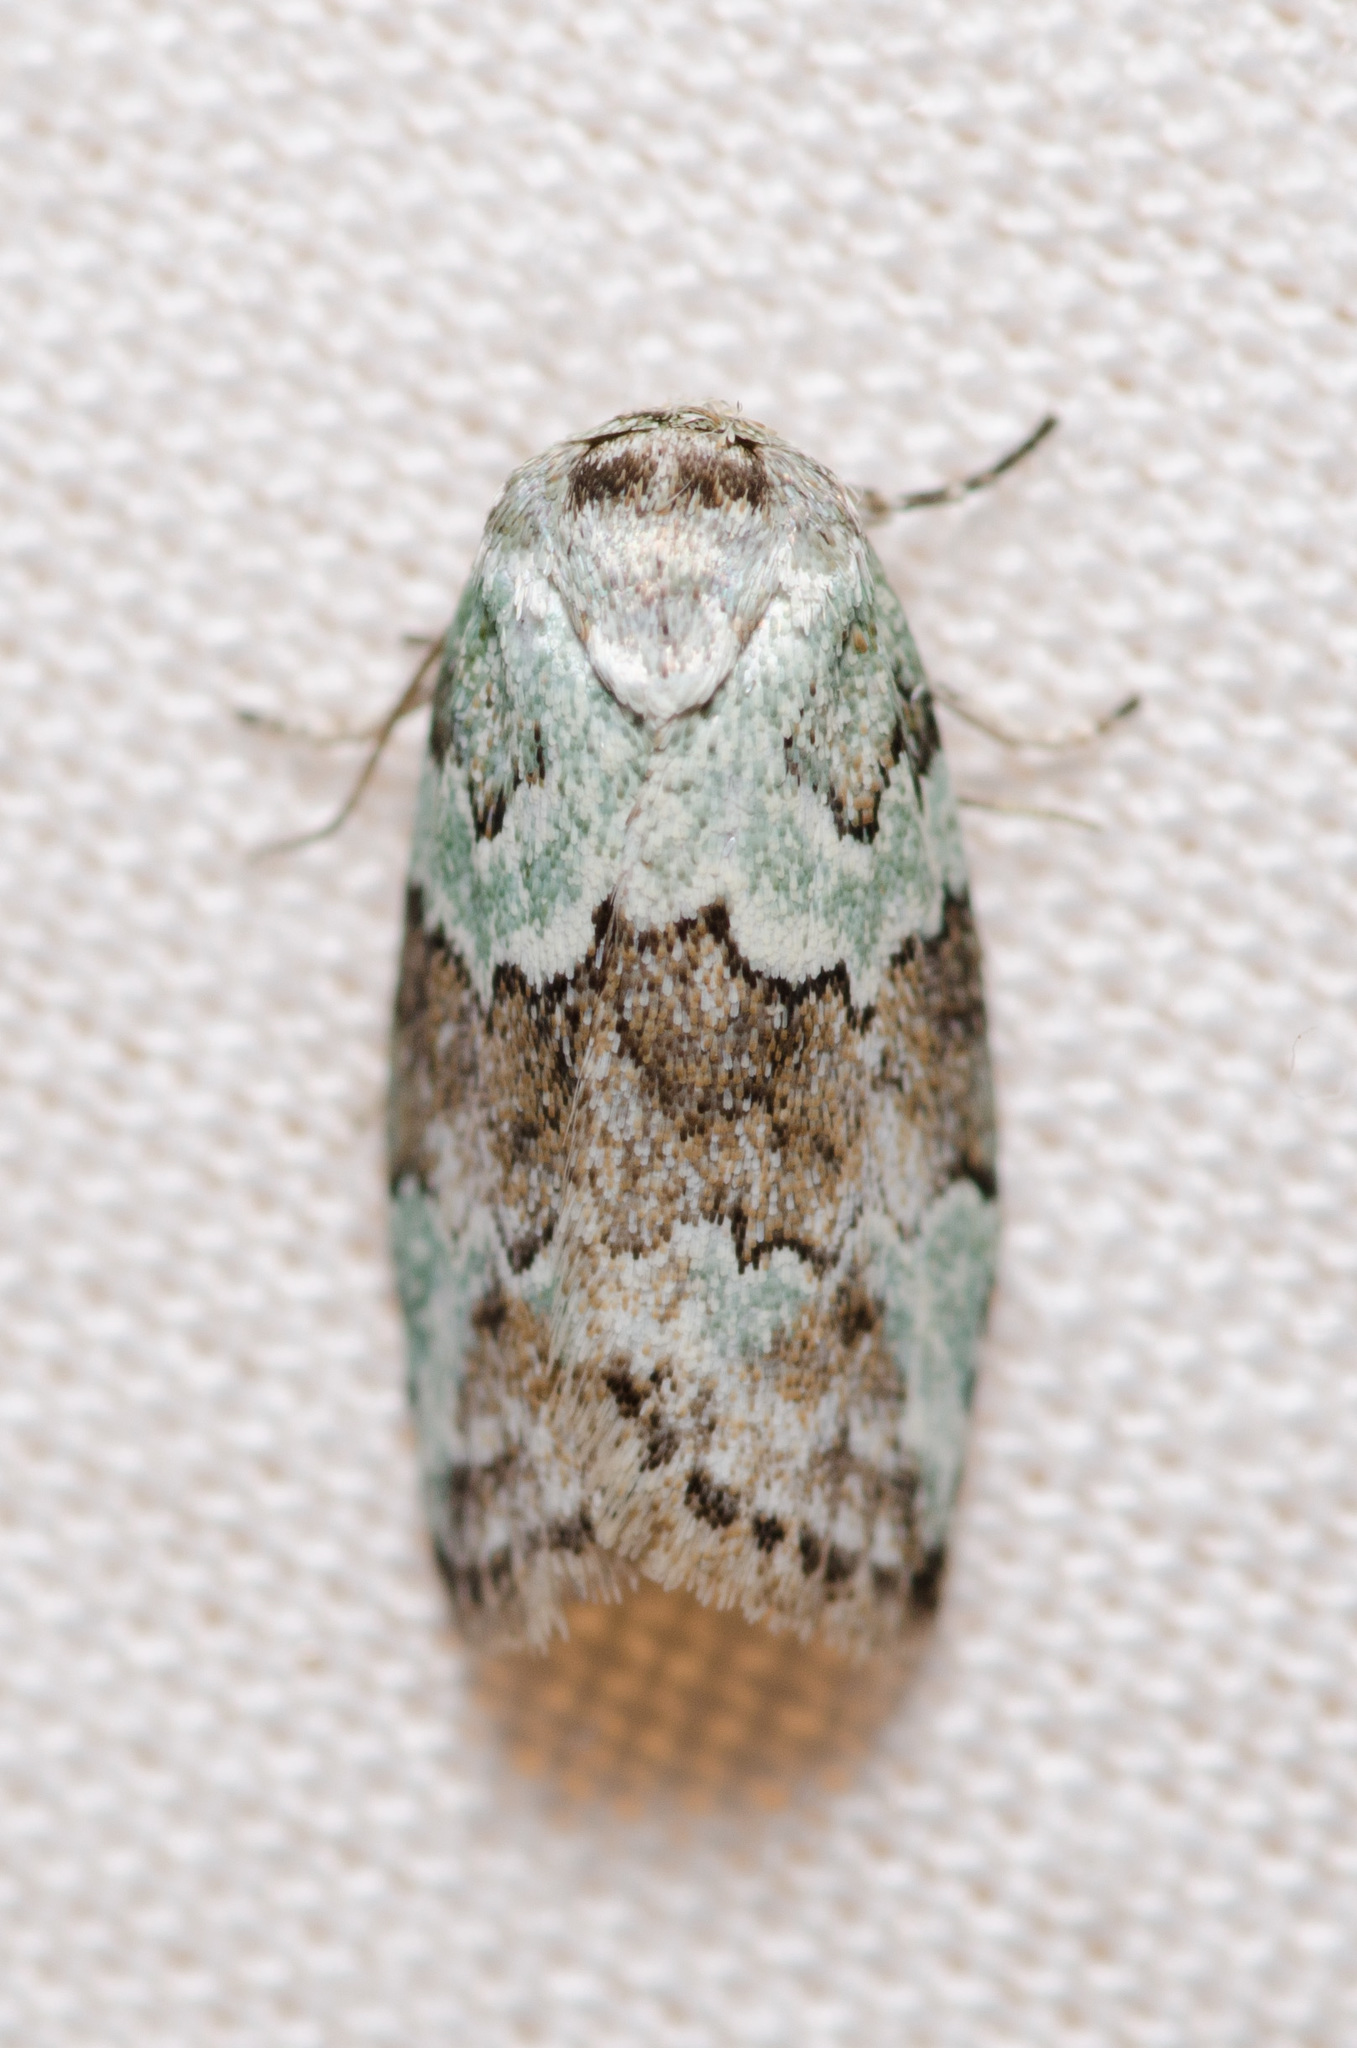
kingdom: Animalia
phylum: Arthropoda
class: Insecta
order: Lepidoptera
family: Nolidae
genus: Afrida
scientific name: Afrida ydatodes
